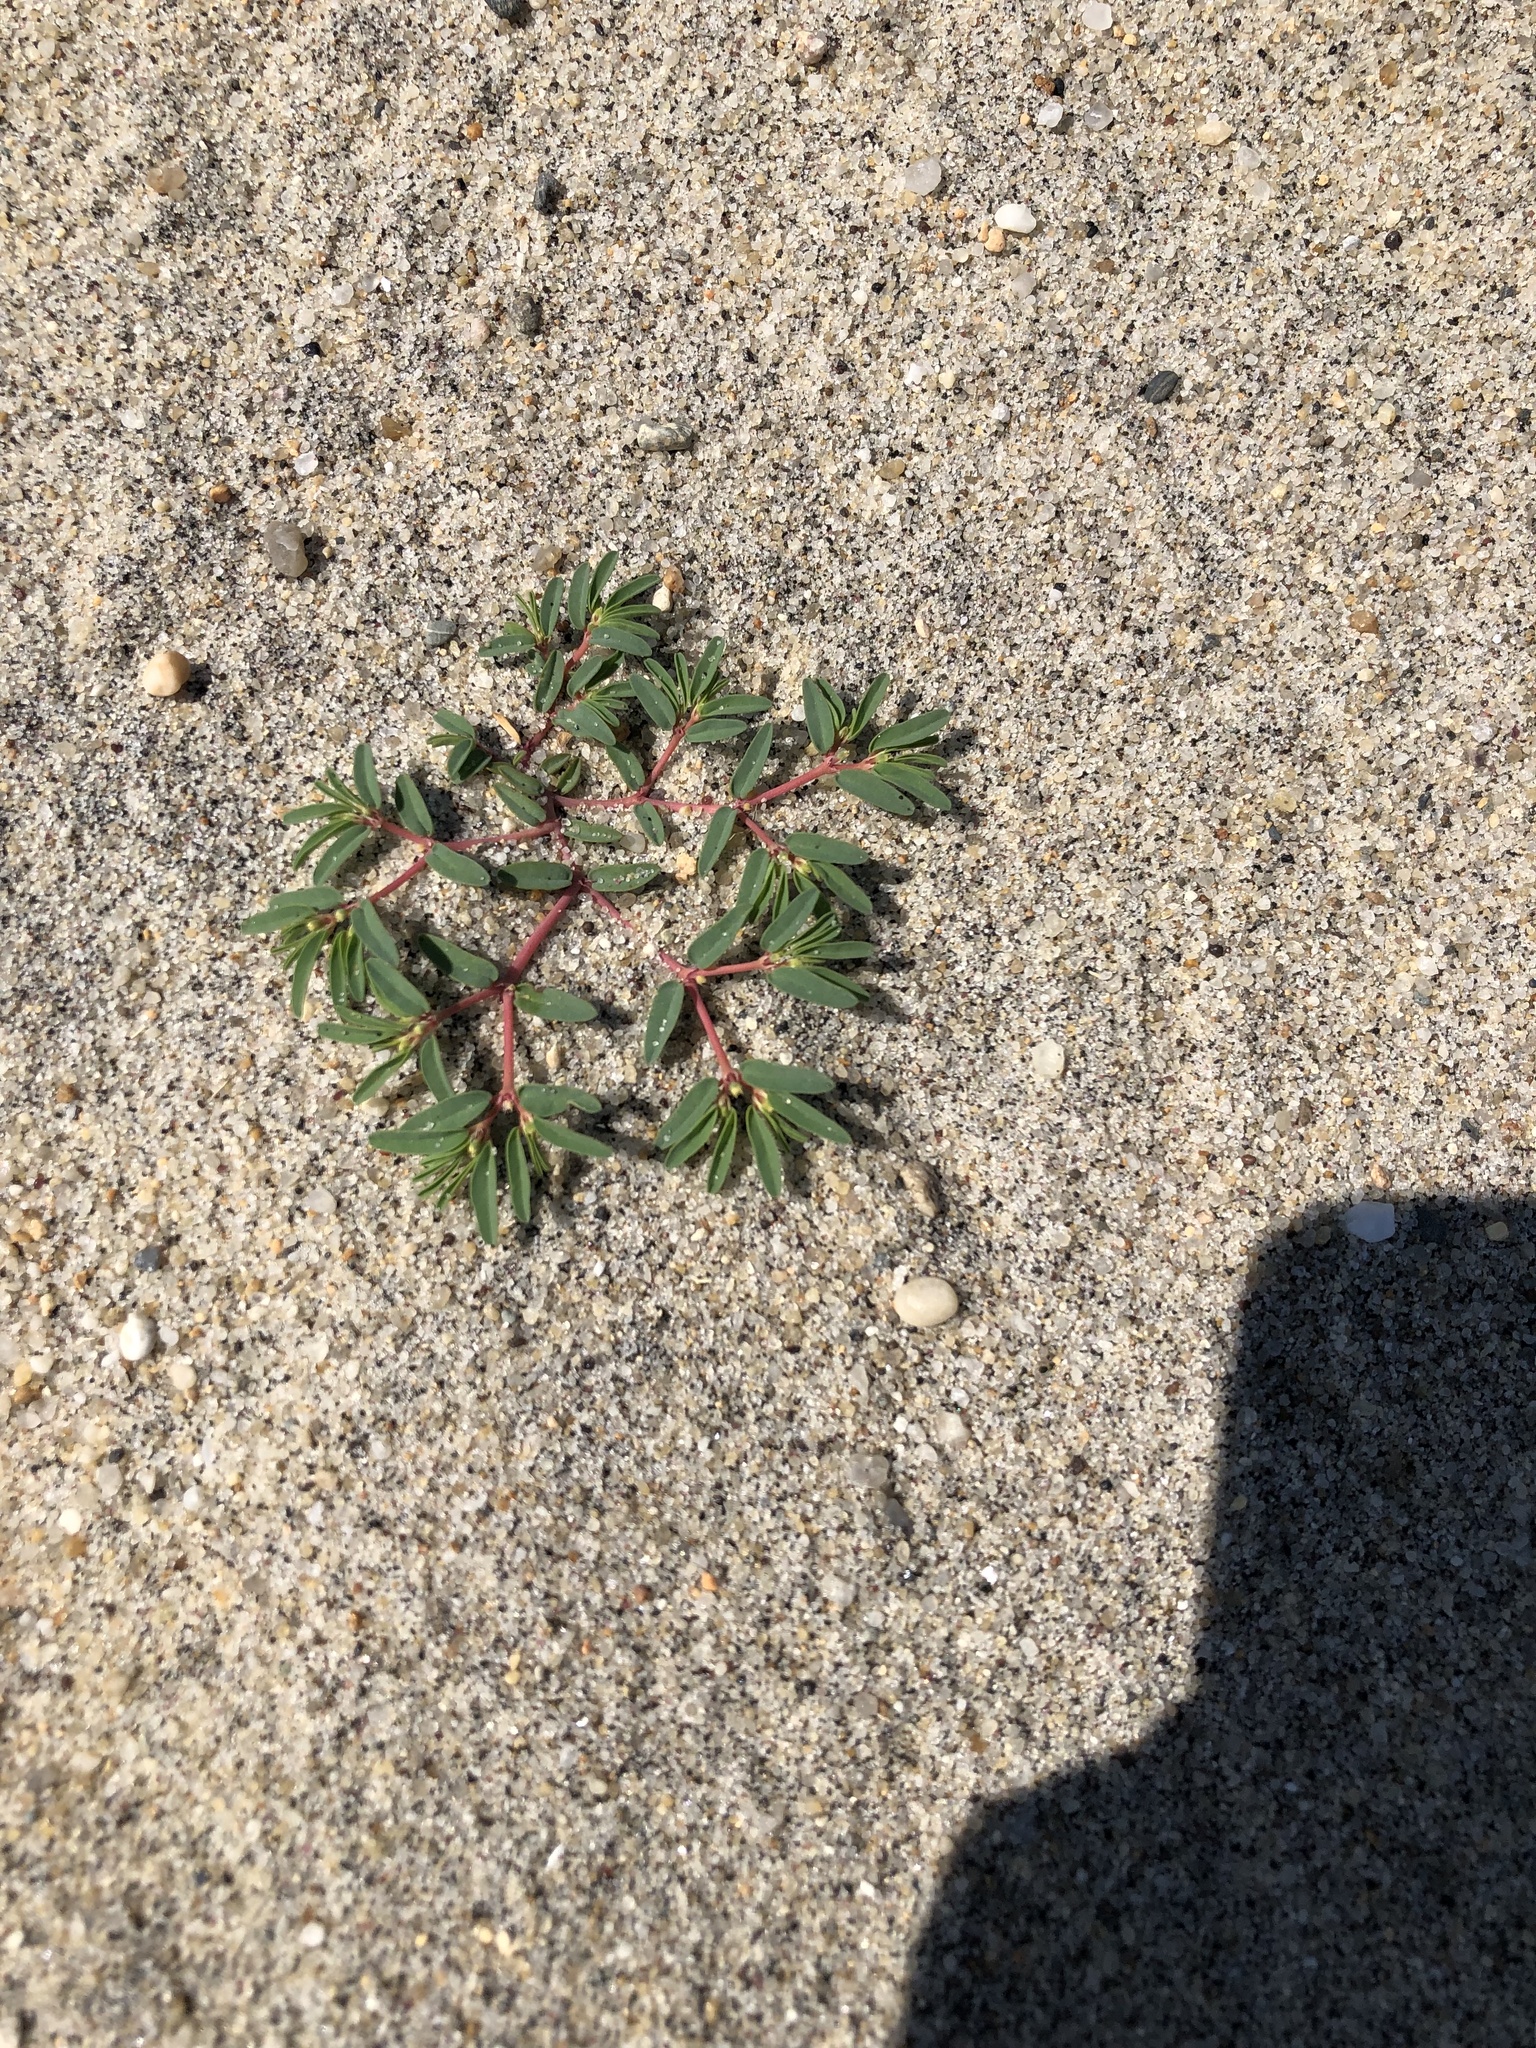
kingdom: Plantae
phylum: Tracheophyta
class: Magnoliopsida
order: Malpighiales
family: Euphorbiaceae
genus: Euphorbia
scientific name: Euphorbia polygonifolia
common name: Knotweed spurge
